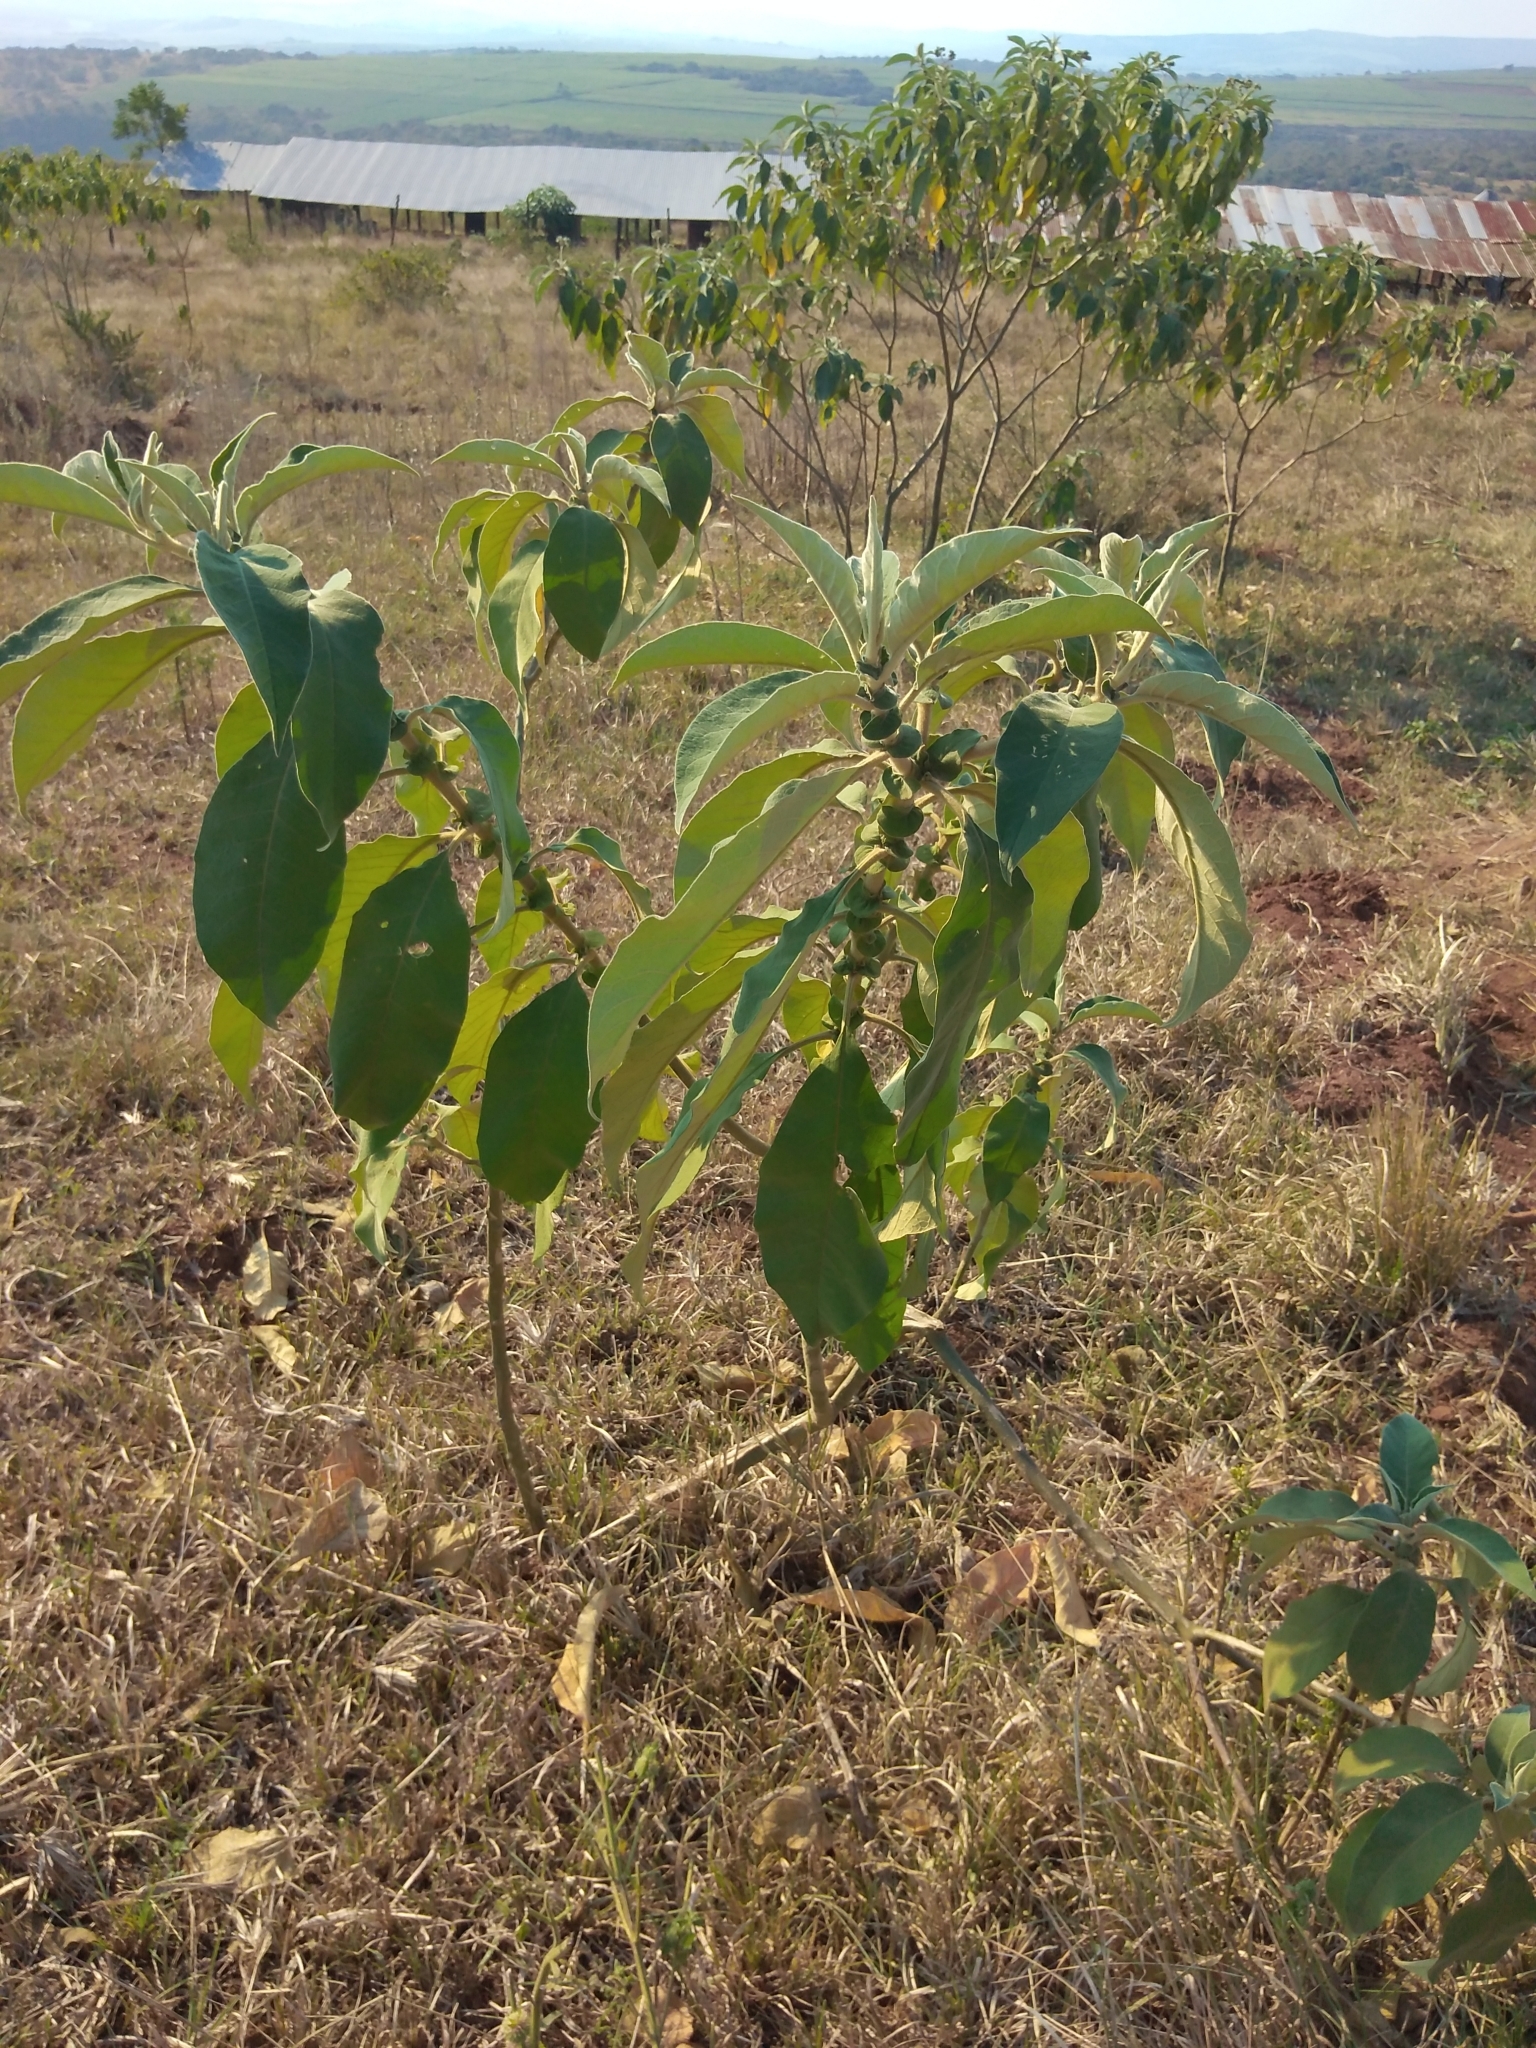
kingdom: Plantae
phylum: Tracheophyta
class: Magnoliopsida
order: Solanales
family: Solanaceae
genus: Solanum
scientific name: Solanum mauritianum
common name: Earleaf nightshade
